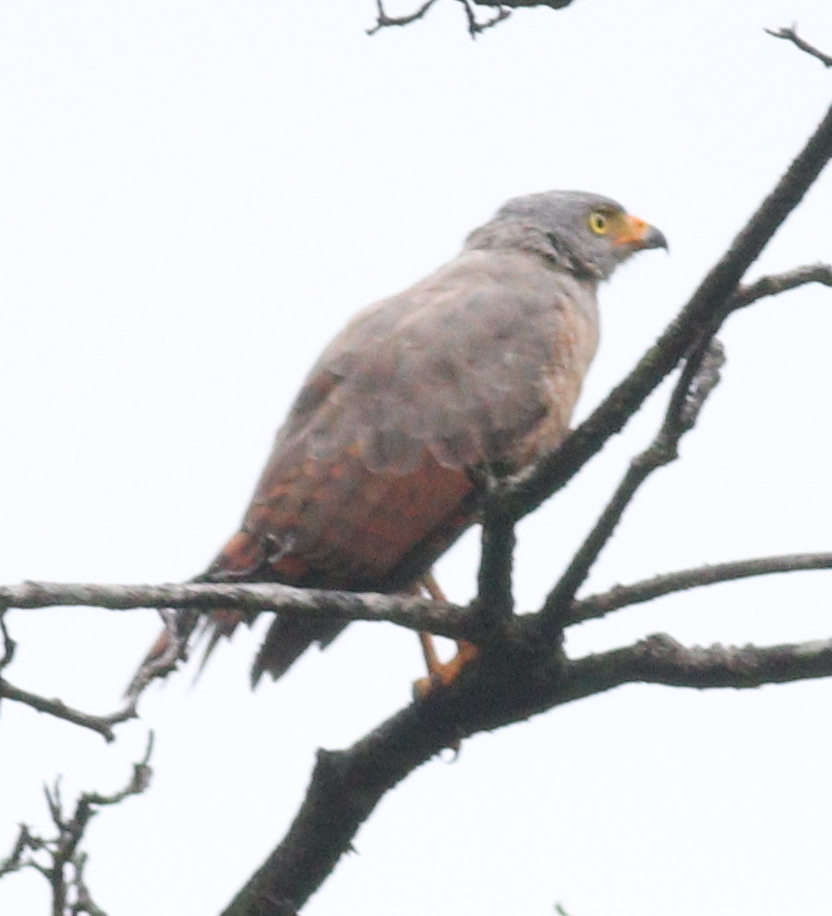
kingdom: Animalia
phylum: Chordata
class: Aves
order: Accipitriformes
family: Accipitridae
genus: Rupornis
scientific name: Rupornis magnirostris
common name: Roadside hawk
